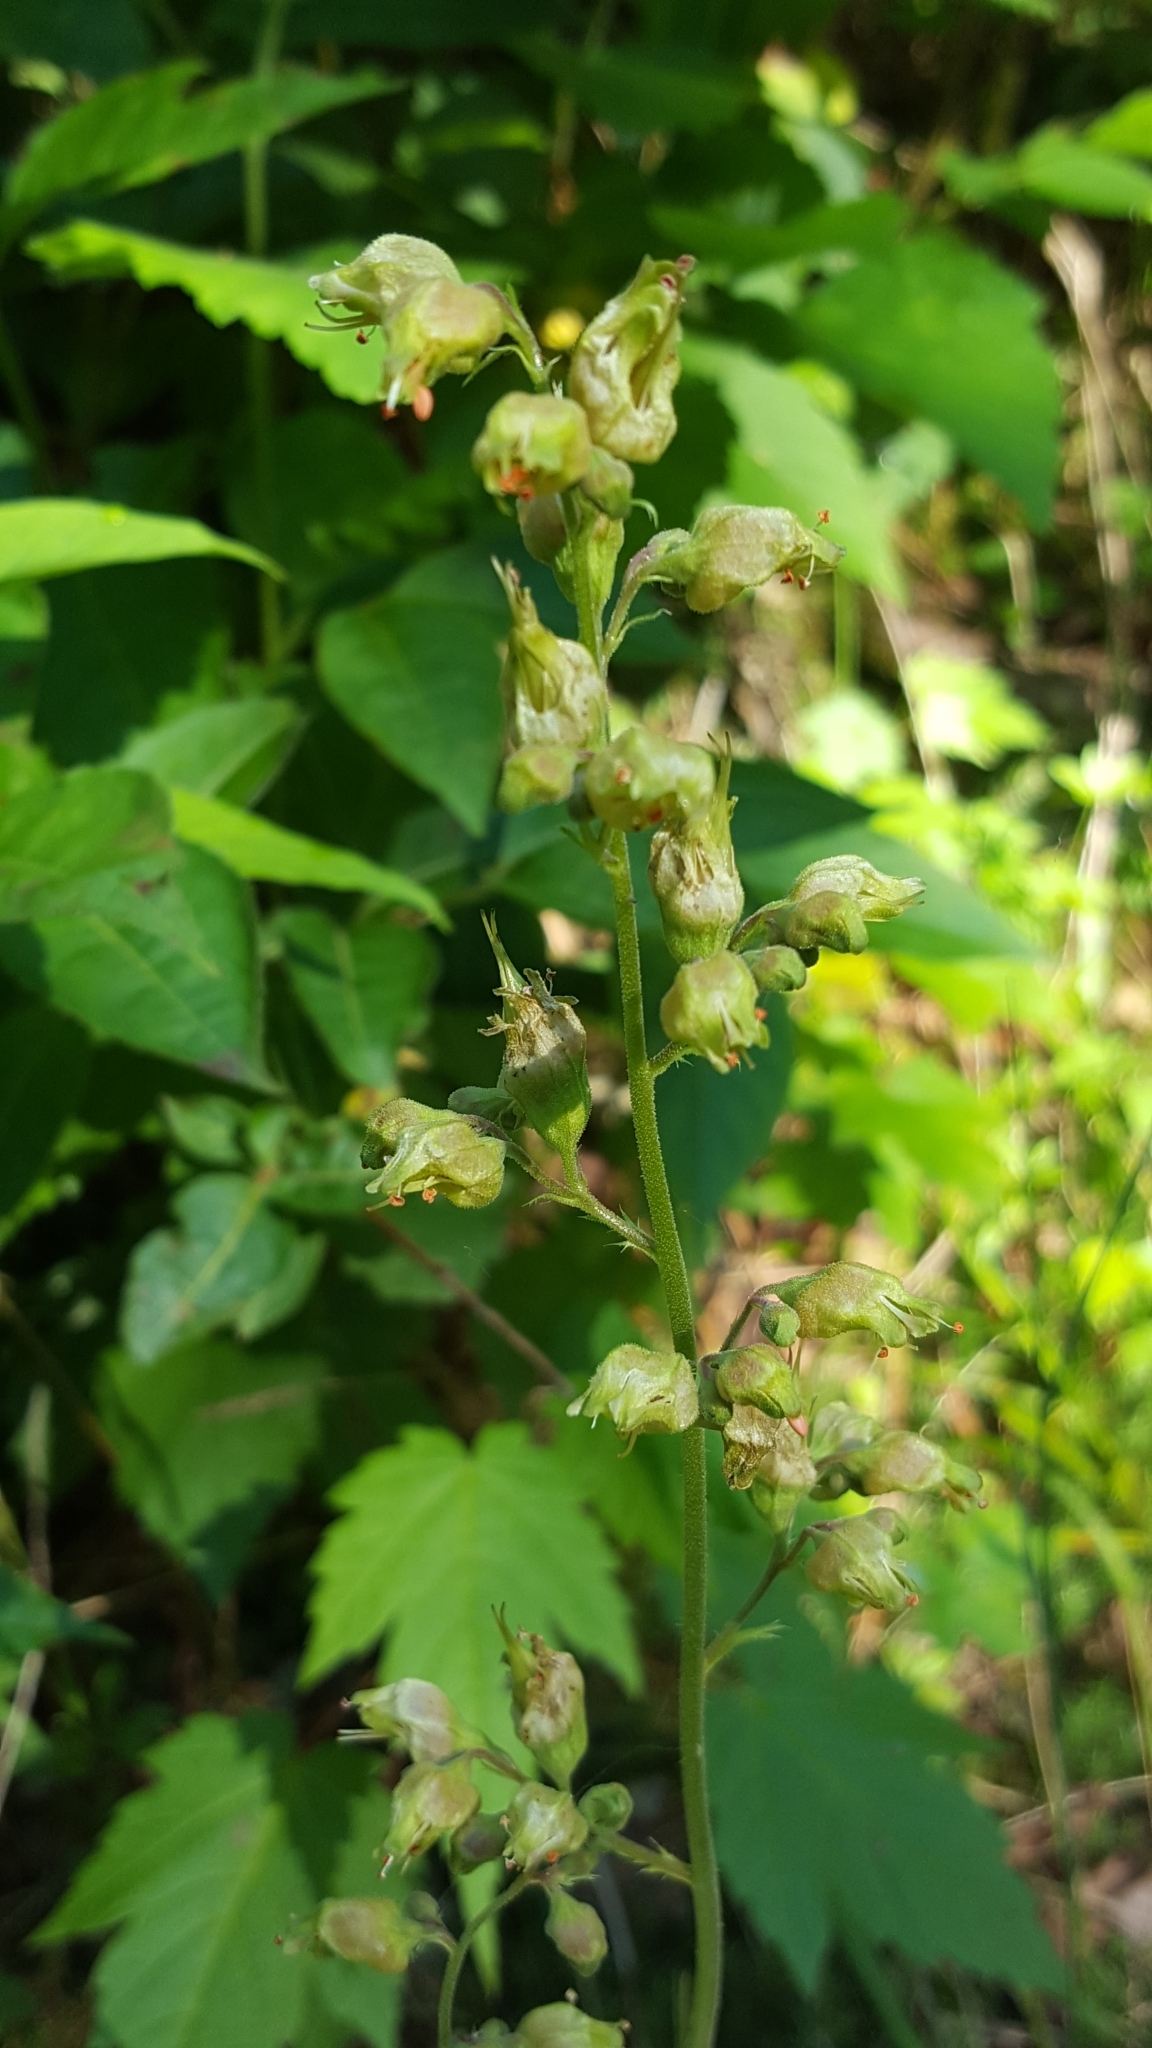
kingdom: Plantae
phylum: Tracheophyta
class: Magnoliopsida
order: Saxifragales
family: Saxifragaceae
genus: Heuchera
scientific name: Heuchera richardsonii
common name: Richardson's alumroot
